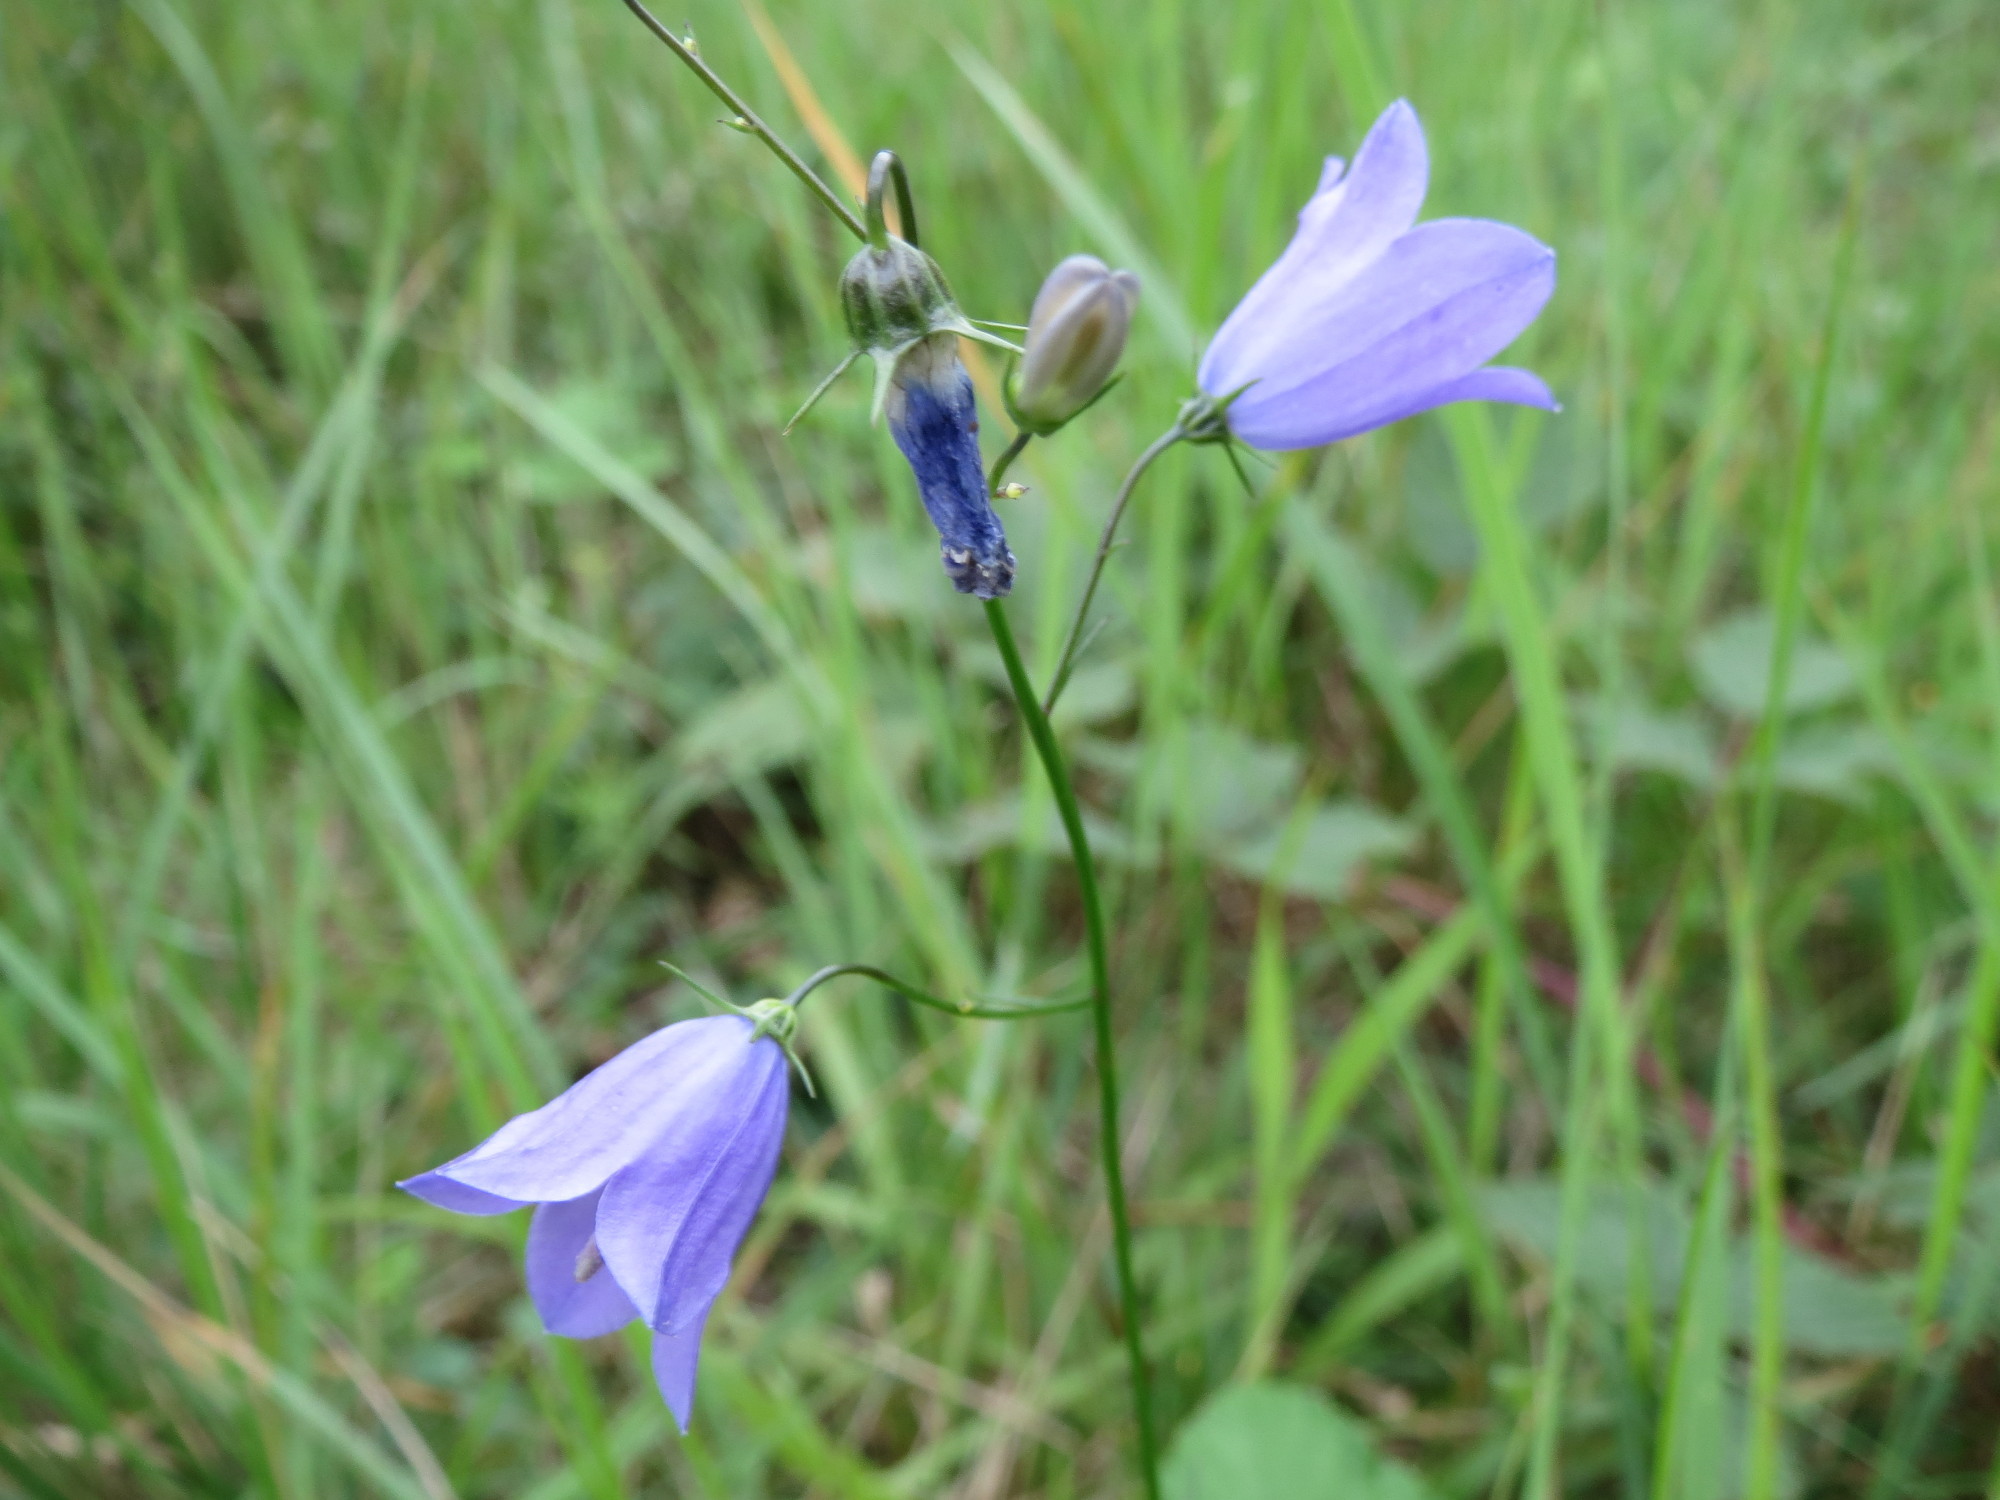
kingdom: Plantae
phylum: Tracheophyta
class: Magnoliopsida
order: Asterales
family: Campanulaceae
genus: Campanula
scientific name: Campanula rotundifolia
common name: Harebell
